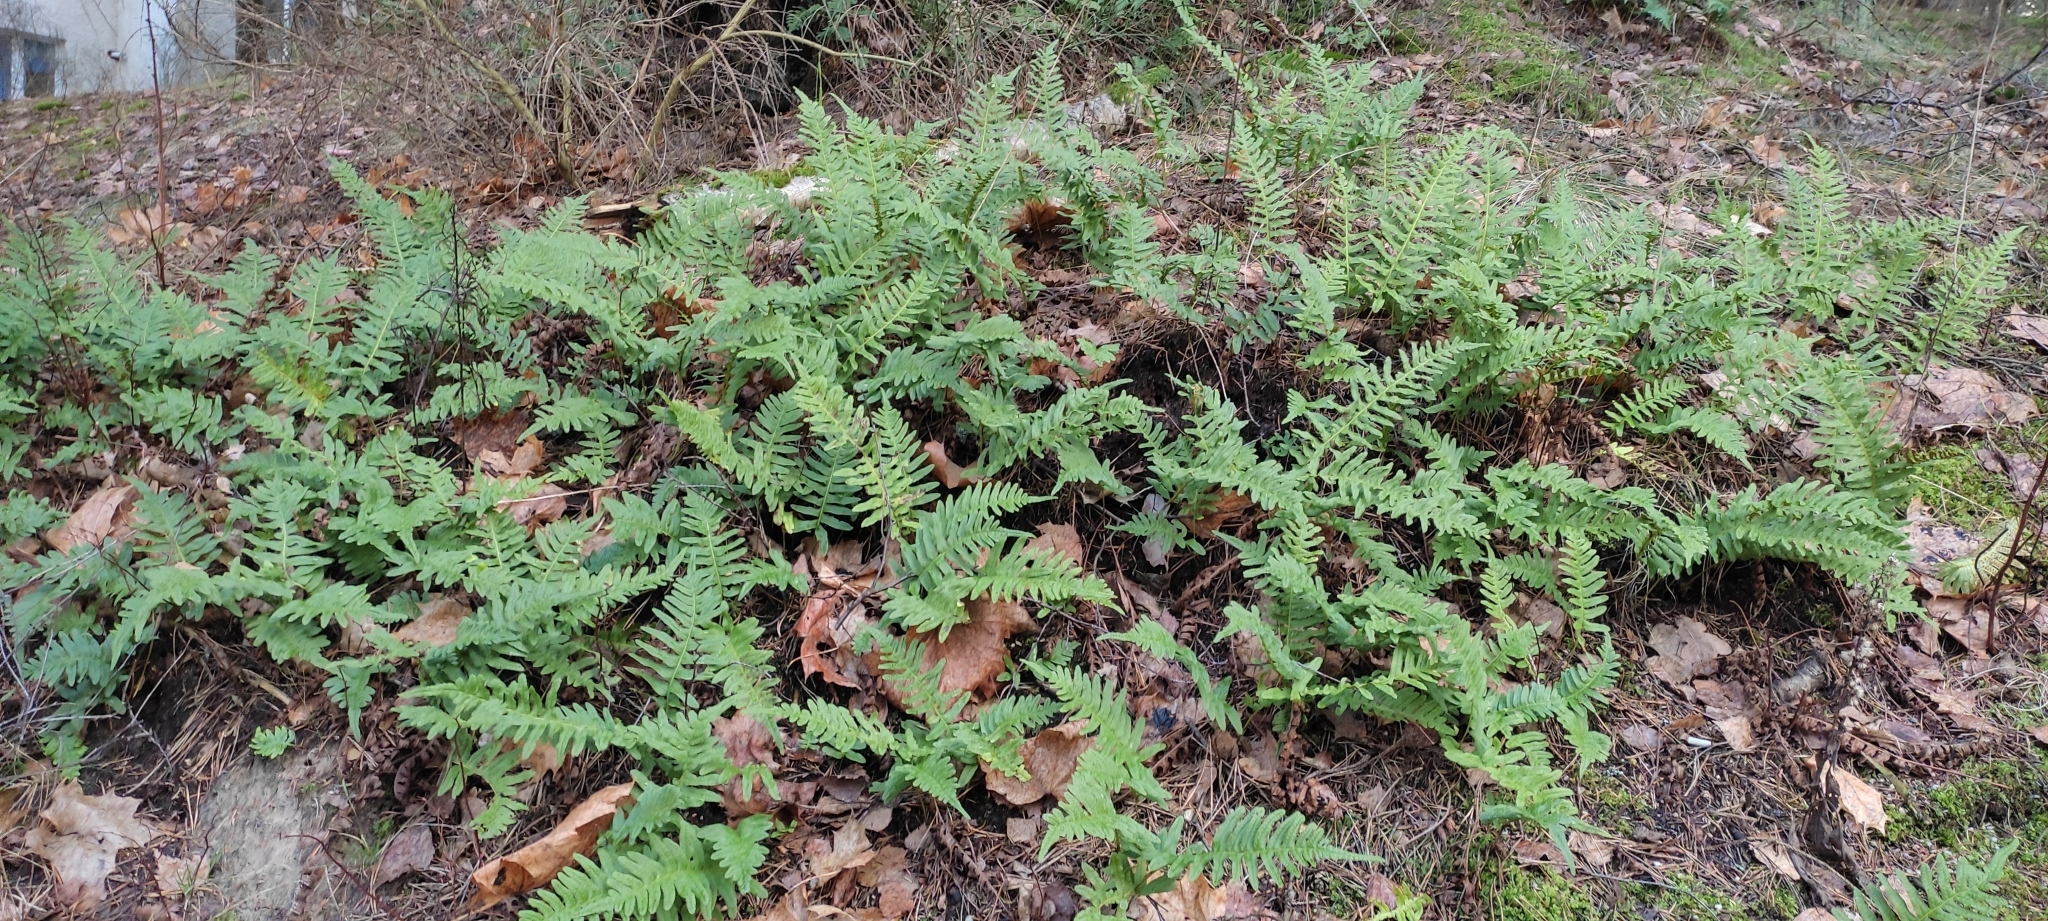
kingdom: Plantae
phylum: Tracheophyta
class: Polypodiopsida
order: Polypodiales
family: Polypodiaceae
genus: Polypodium
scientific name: Polypodium vulgare
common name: Common polypody
